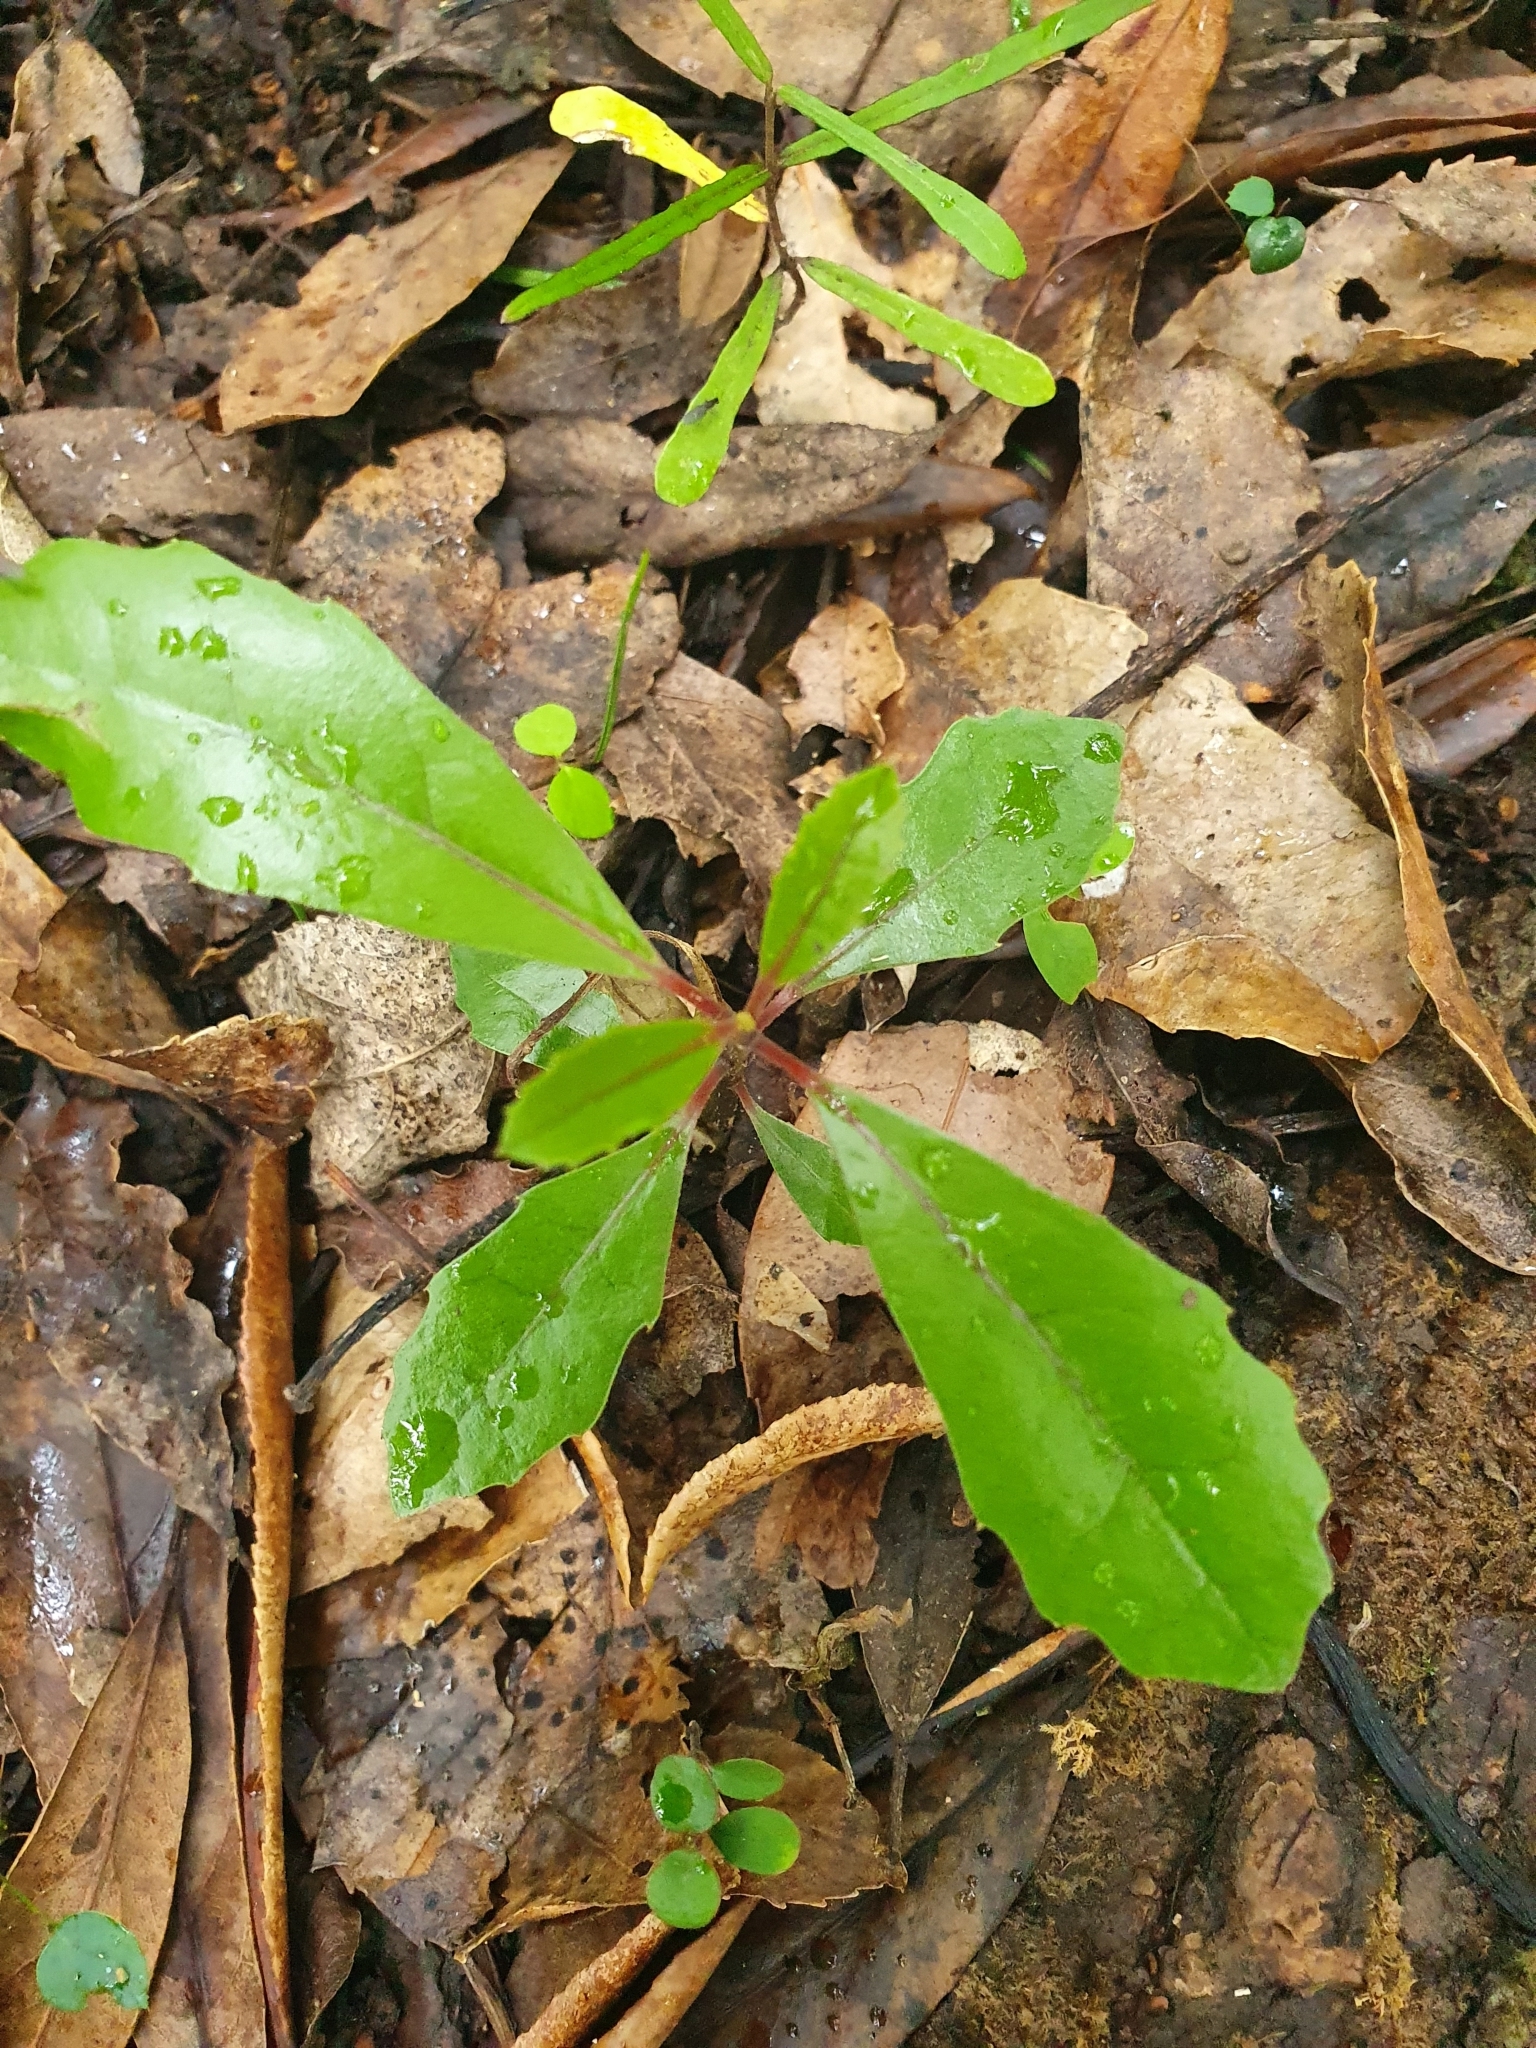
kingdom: Plantae
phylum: Tracheophyta
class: Magnoliopsida
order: Laurales
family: Monimiaceae
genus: Hedycarya
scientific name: Hedycarya arborea
